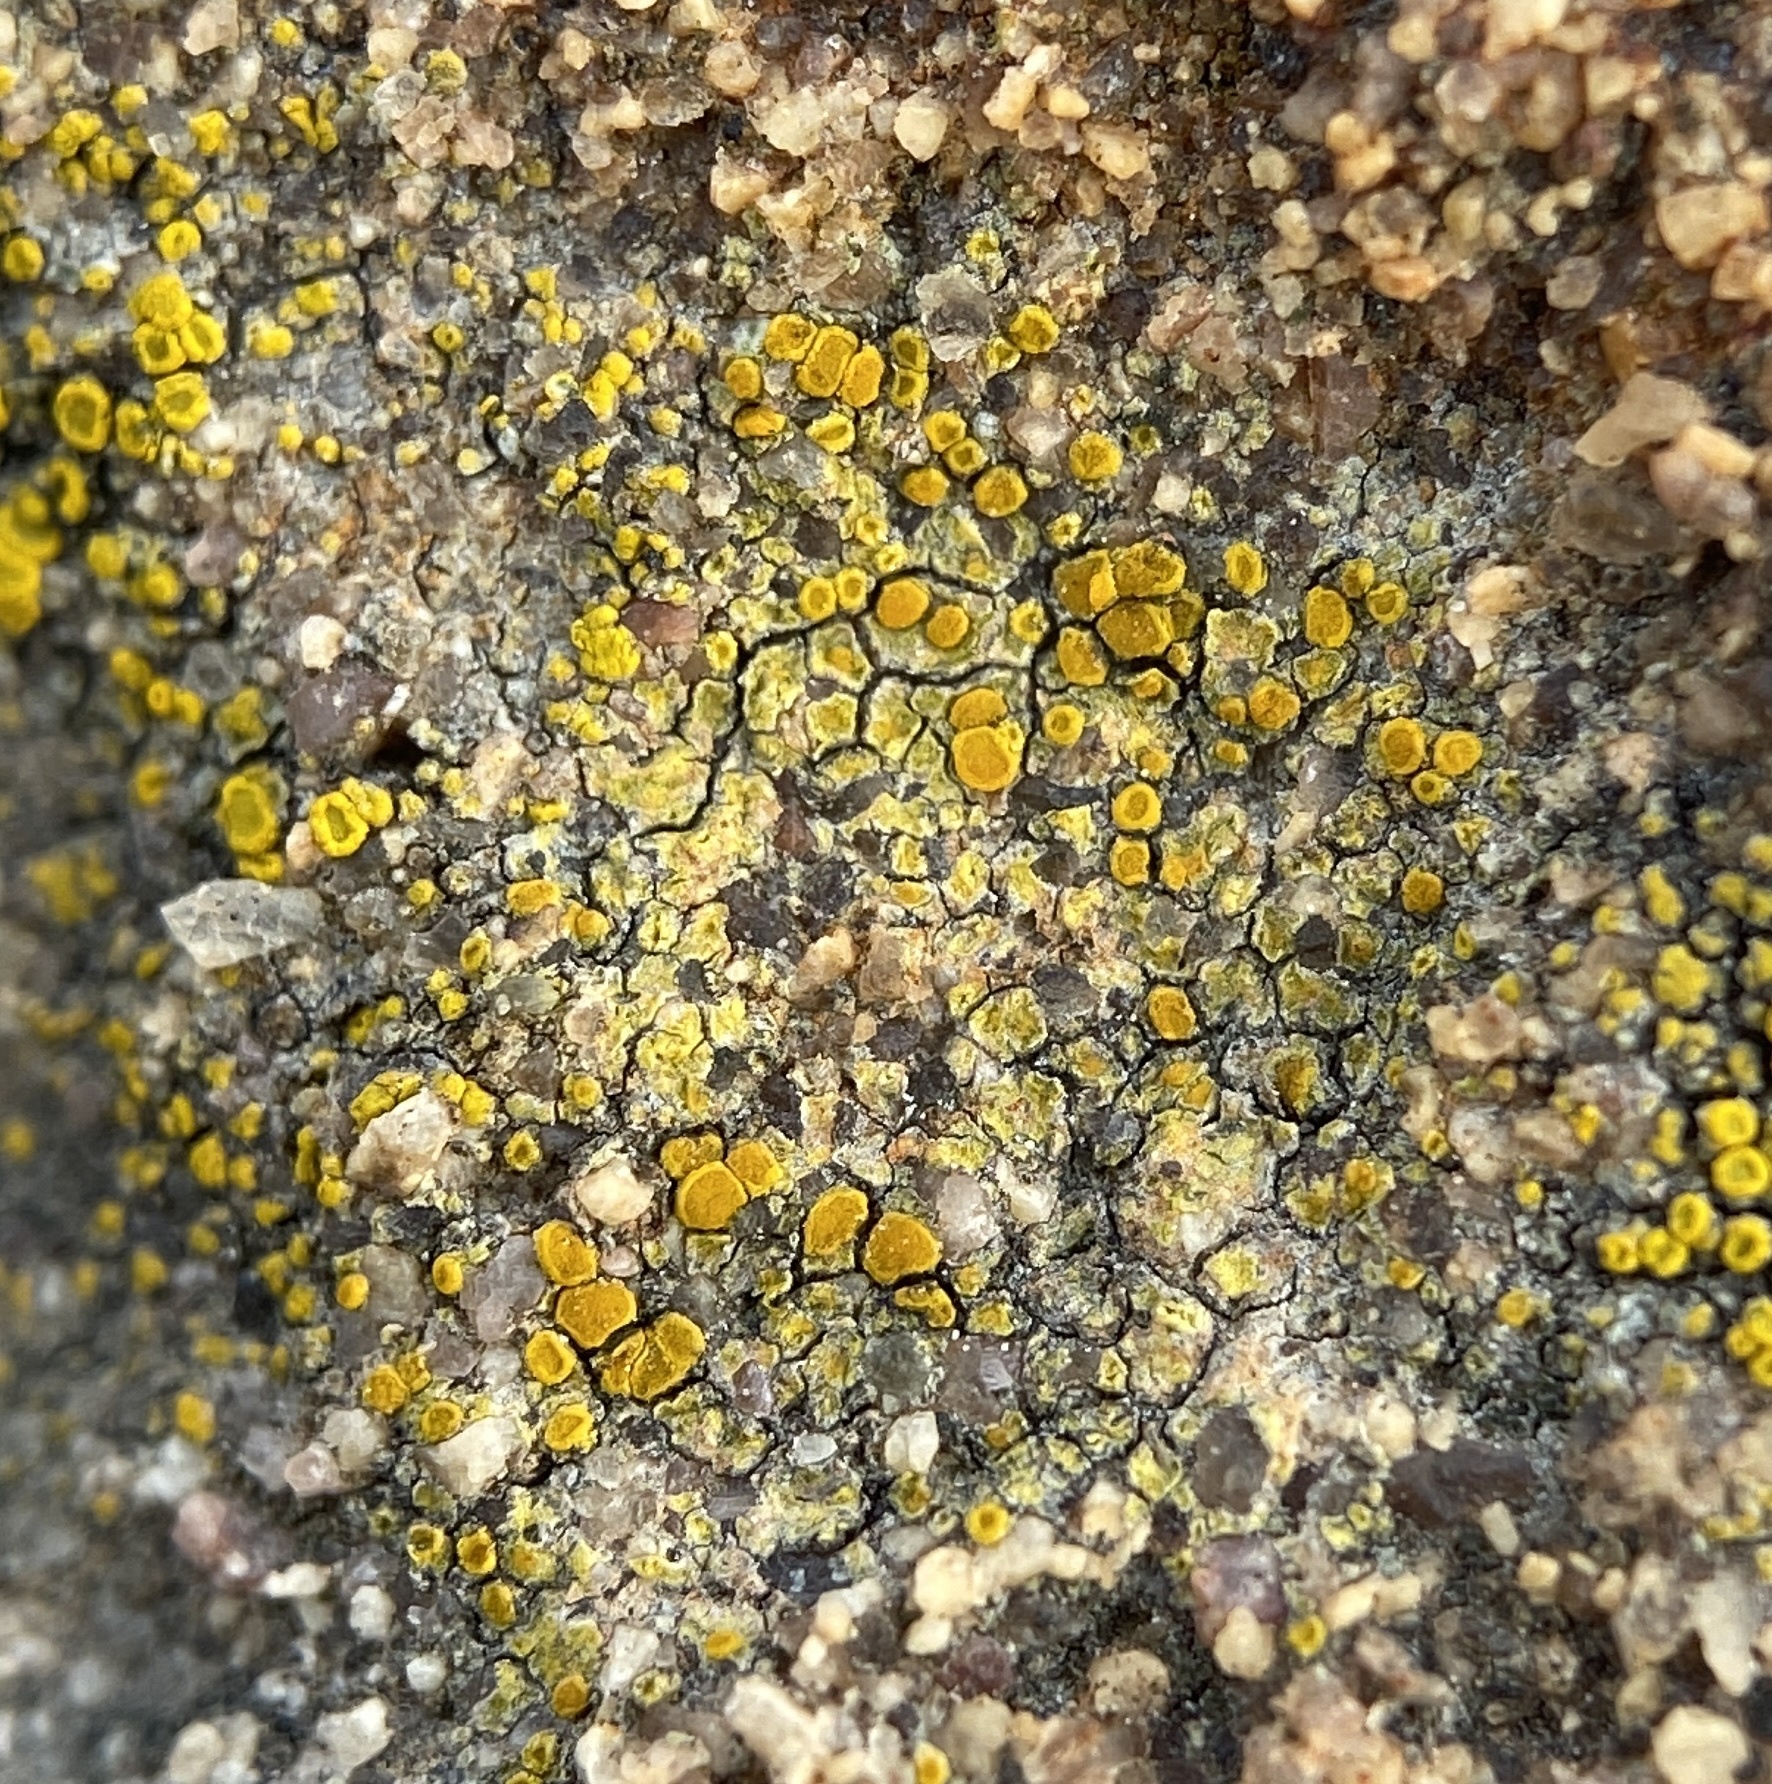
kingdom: Fungi
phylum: Ascomycota
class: Lecanoromycetes
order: Teloschistales
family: Teloschistaceae
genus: Gyalolechia
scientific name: Gyalolechia flavovirescens
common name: Sulphur firedot
